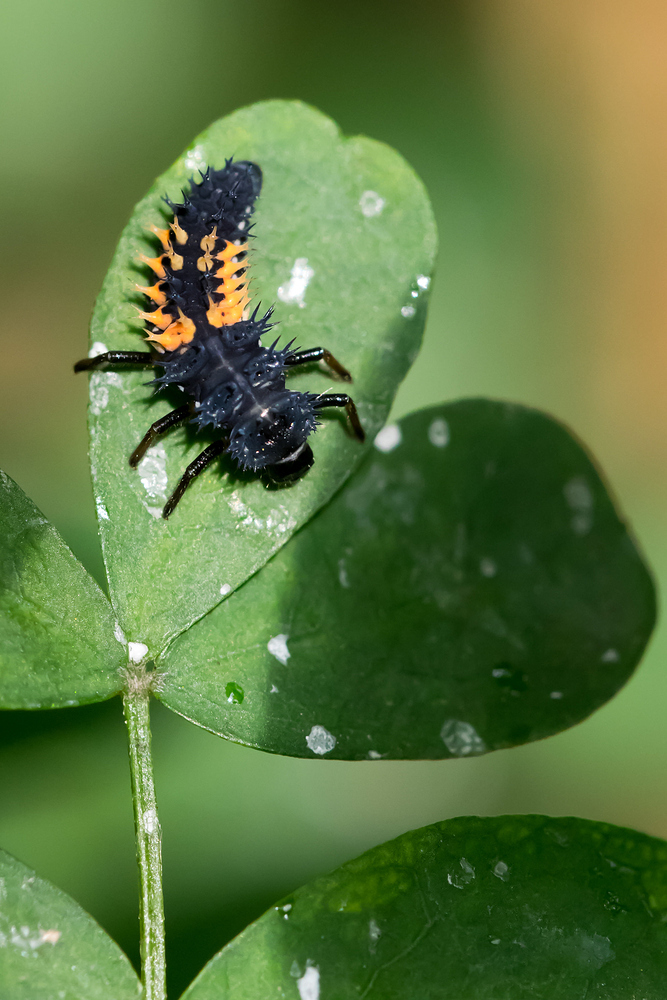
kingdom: Animalia
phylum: Arthropoda
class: Insecta
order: Coleoptera
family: Coccinellidae
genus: Harmonia
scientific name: Harmonia axyridis
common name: Harlequin ladybird
